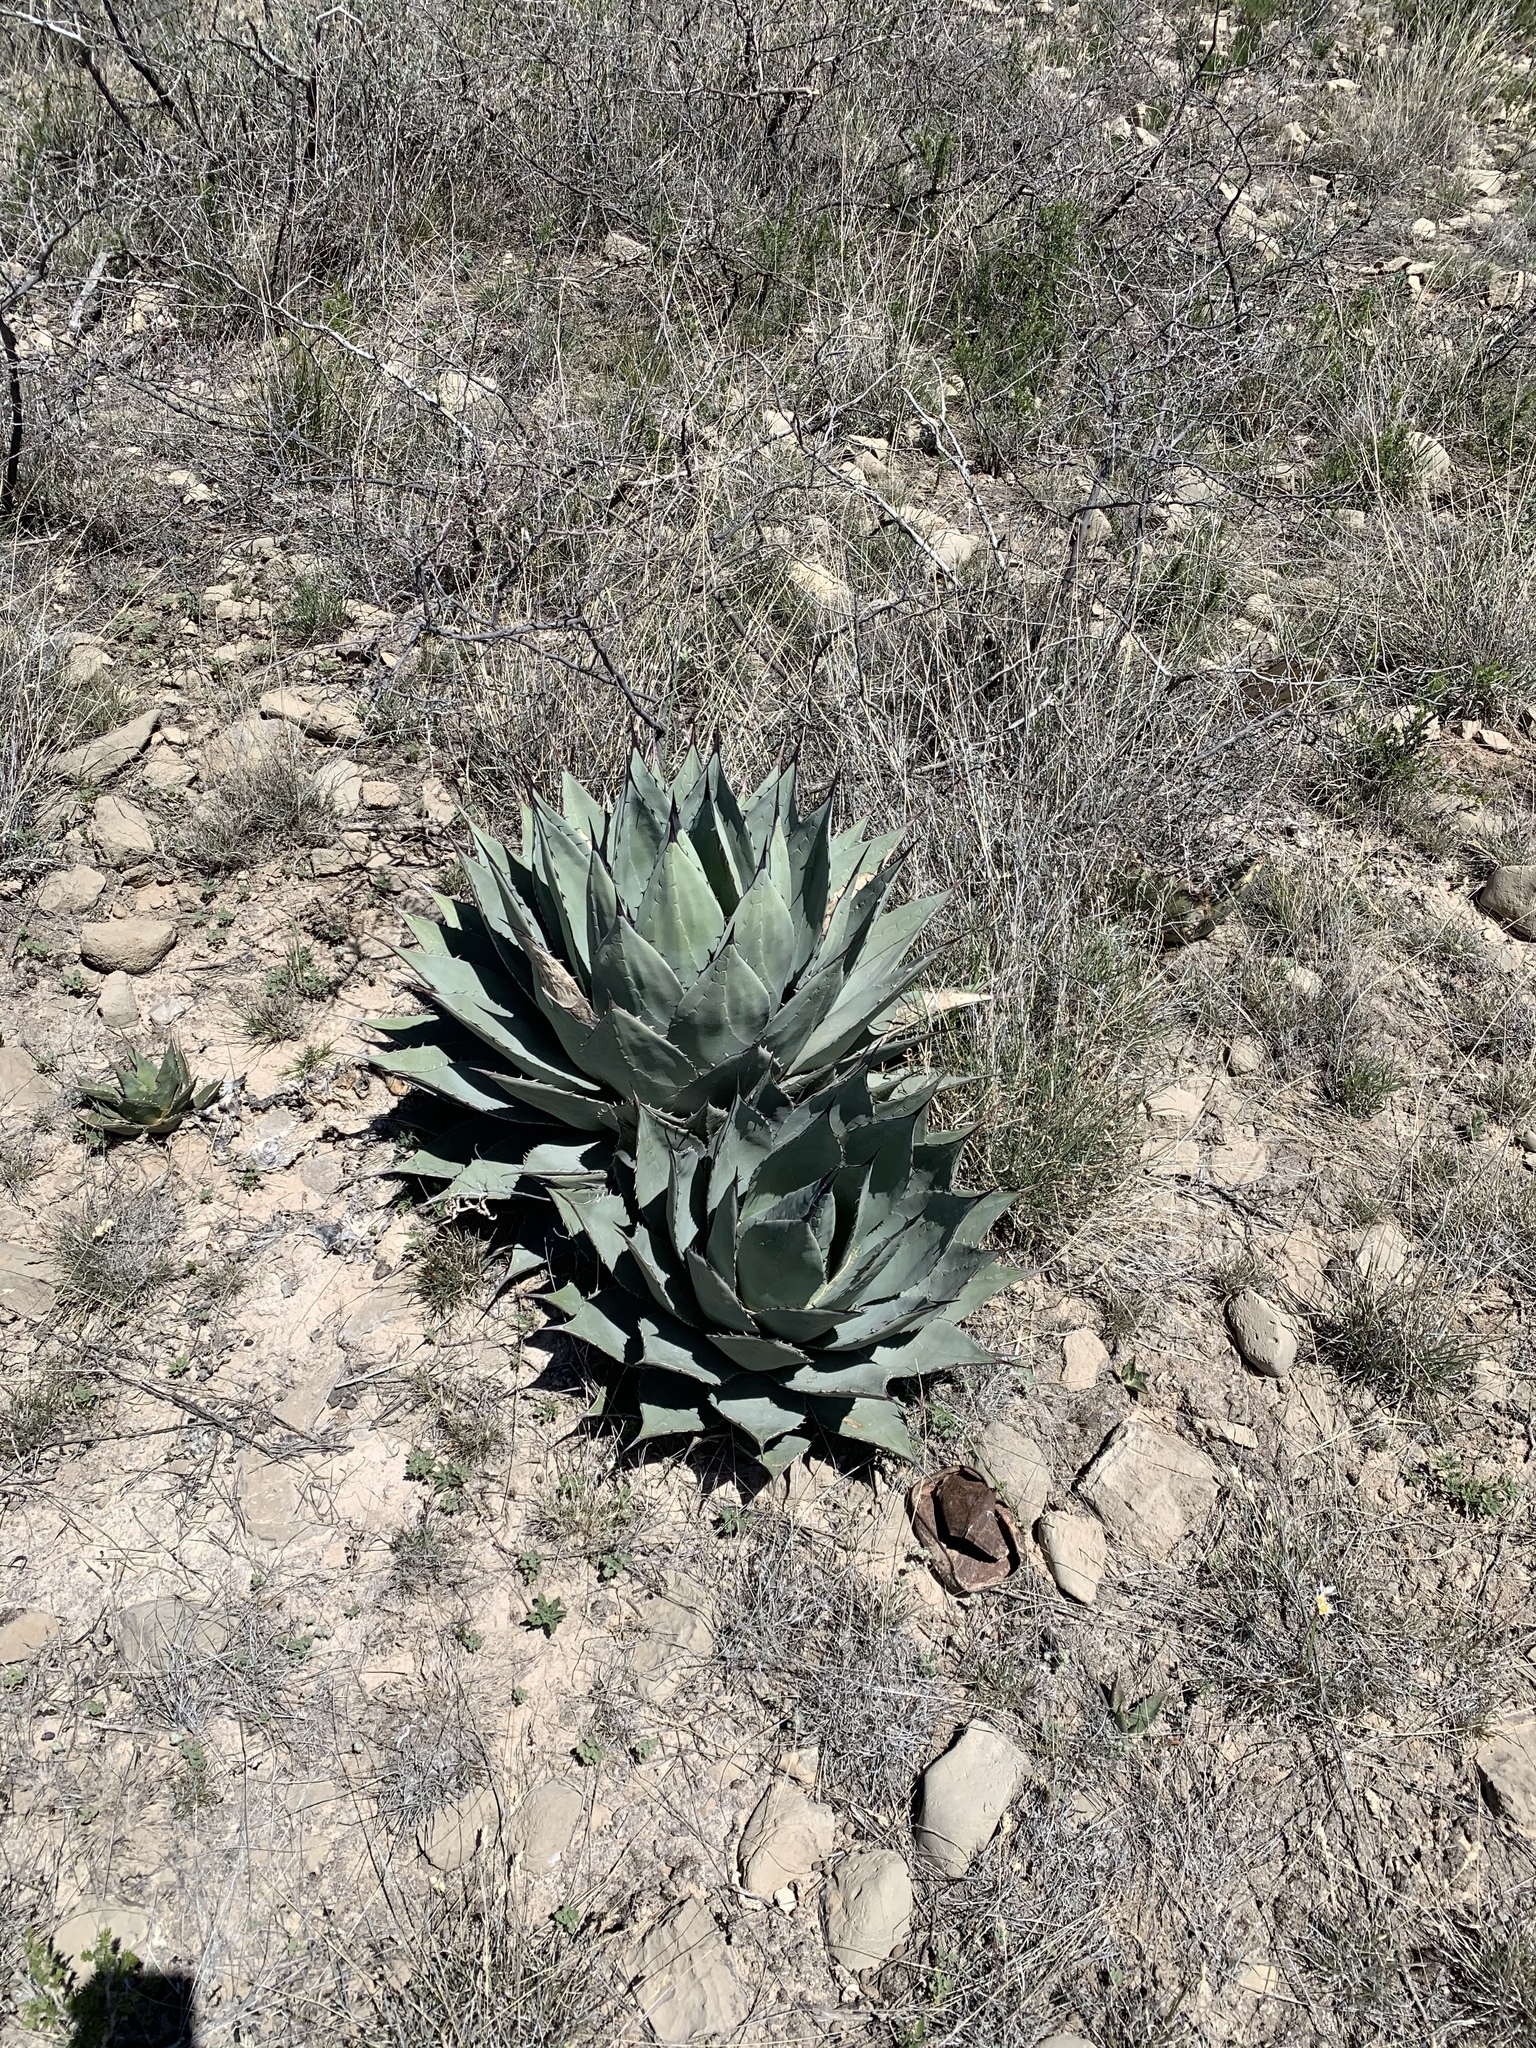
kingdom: Plantae
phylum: Tracheophyta
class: Liliopsida
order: Asparagales
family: Asparagaceae
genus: Agave
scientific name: Agave parryi
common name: Parry's agave
